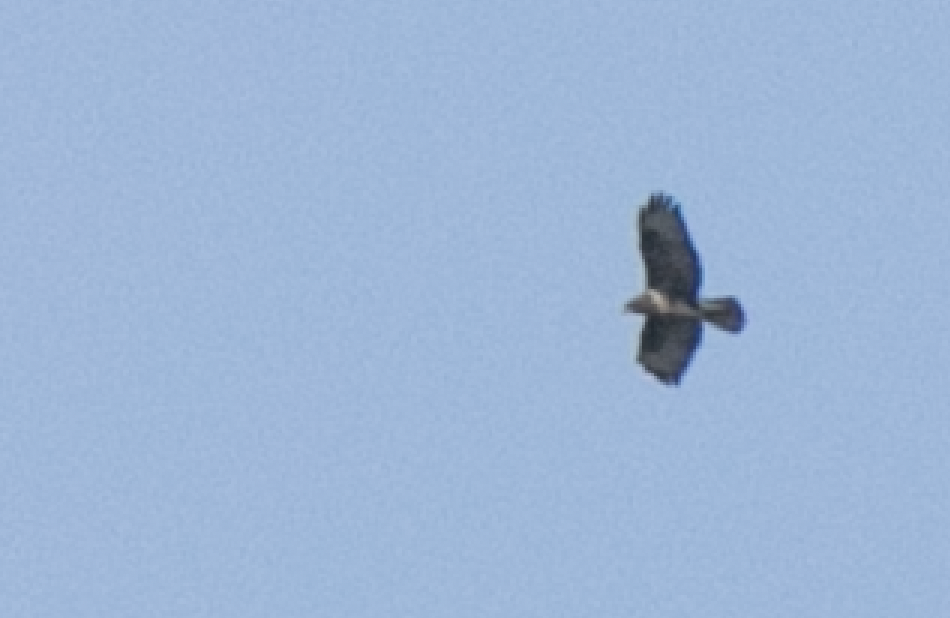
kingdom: Animalia
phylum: Chordata
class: Aves
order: Accipitriformes
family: Accipitridae
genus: Buteo
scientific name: Buteo buteo
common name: Common buzzard
